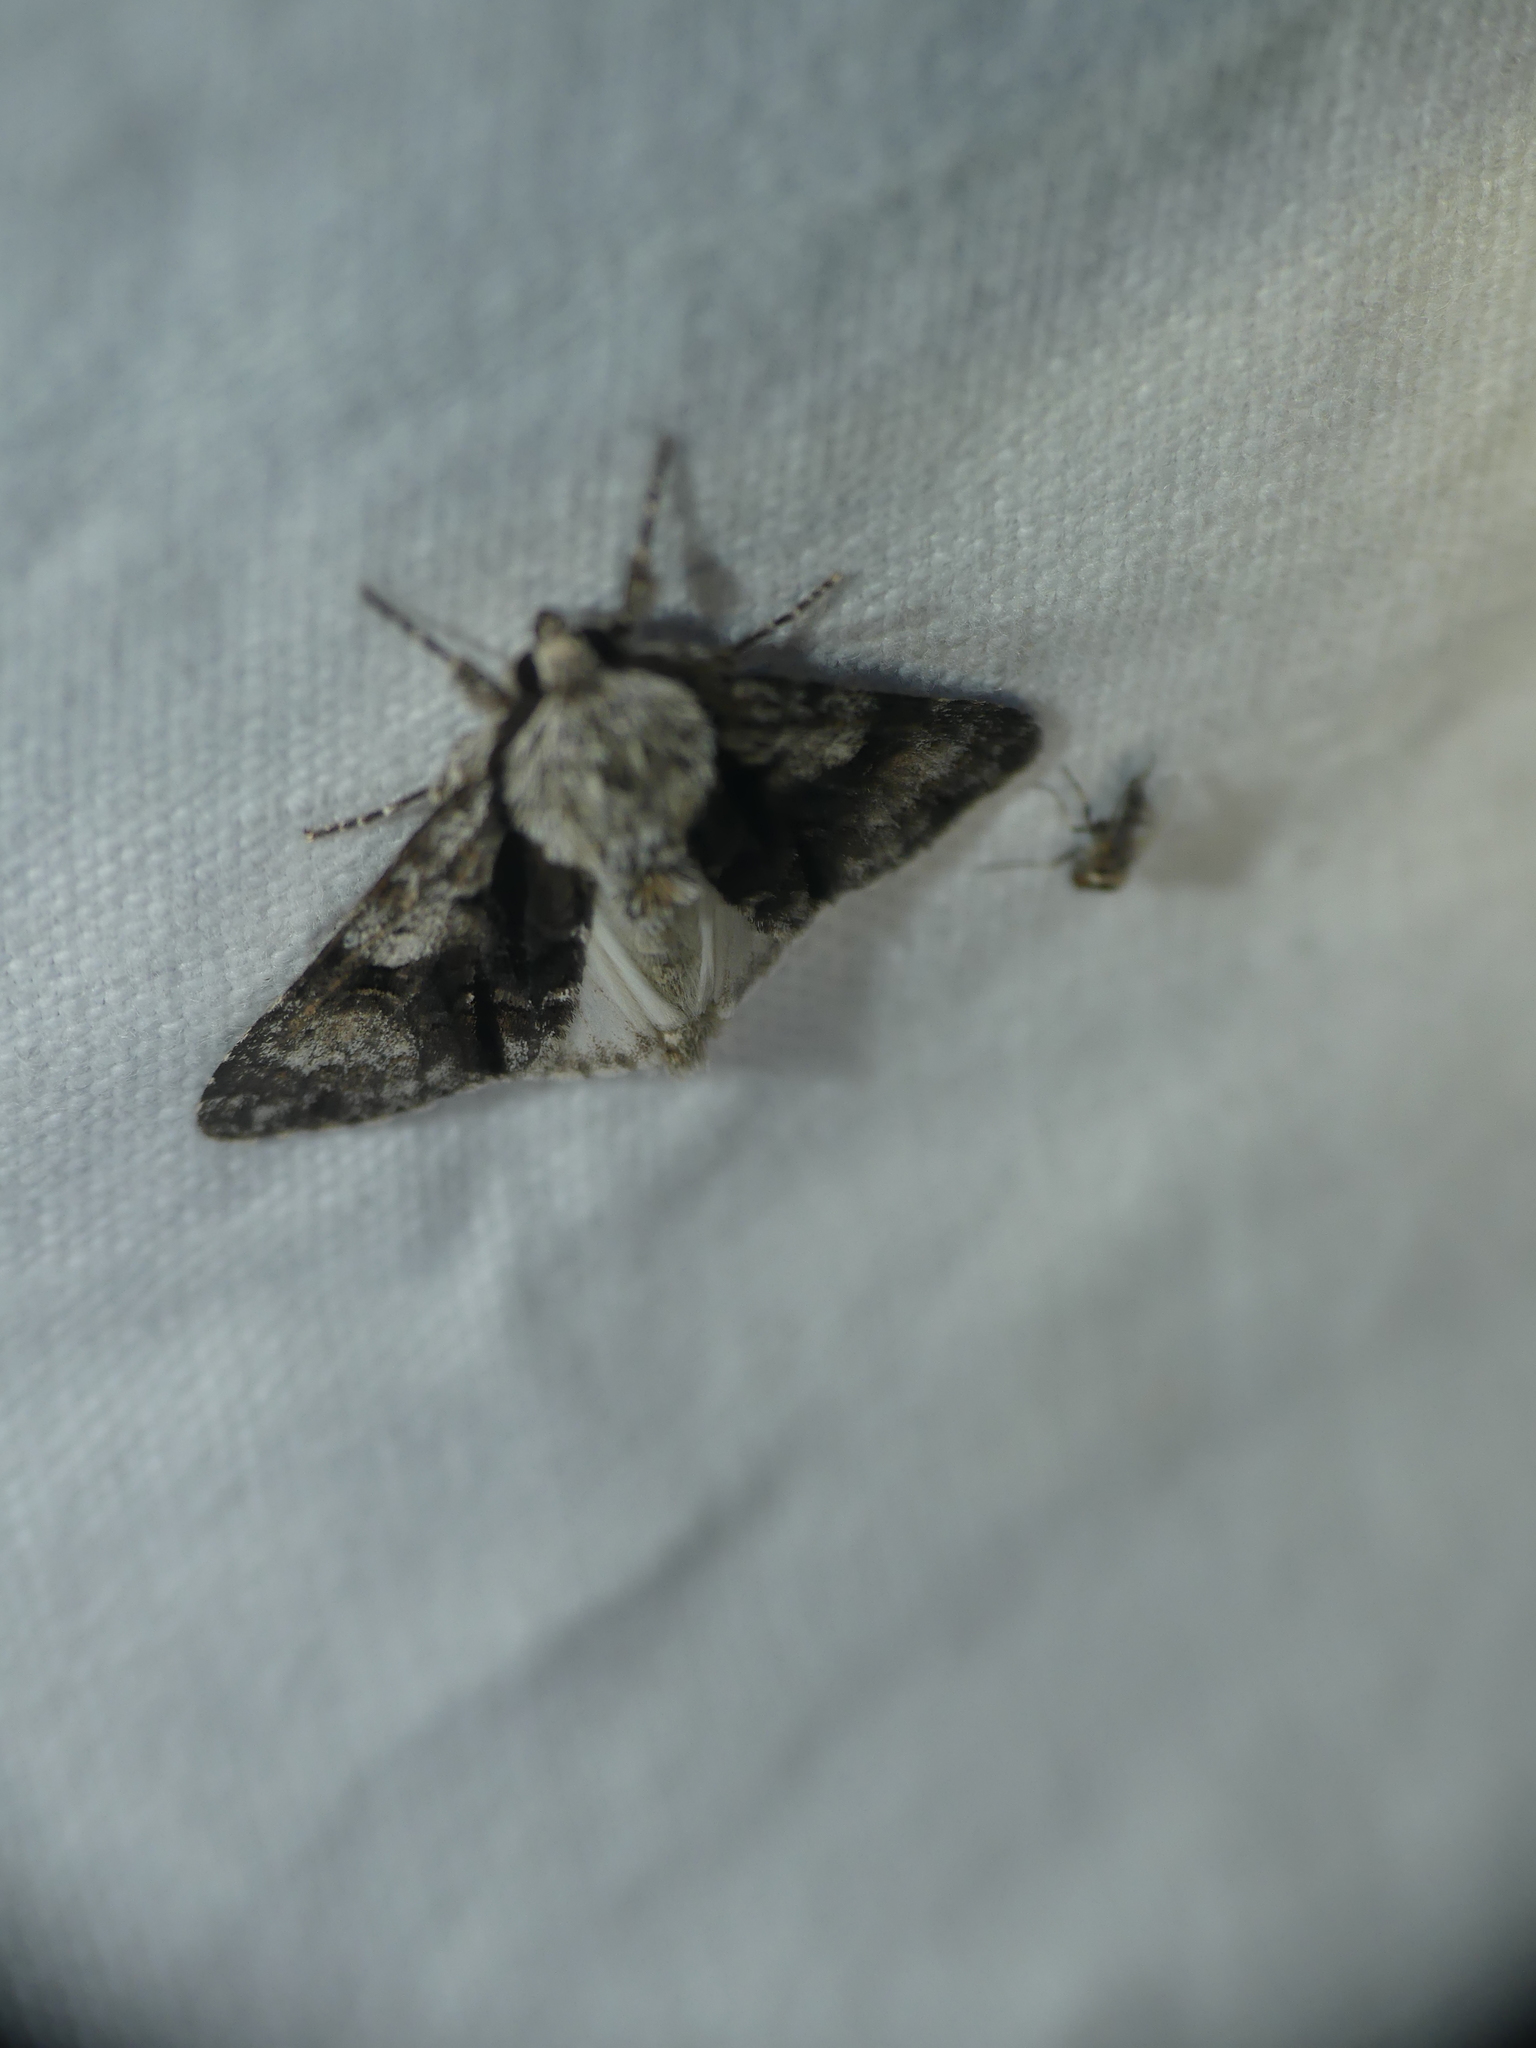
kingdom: Animalia
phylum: Arthropoda
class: Insecta
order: Lepidoptera
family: Noctuidae
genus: Acronicta
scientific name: Acronicta alni
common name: Alder moth
